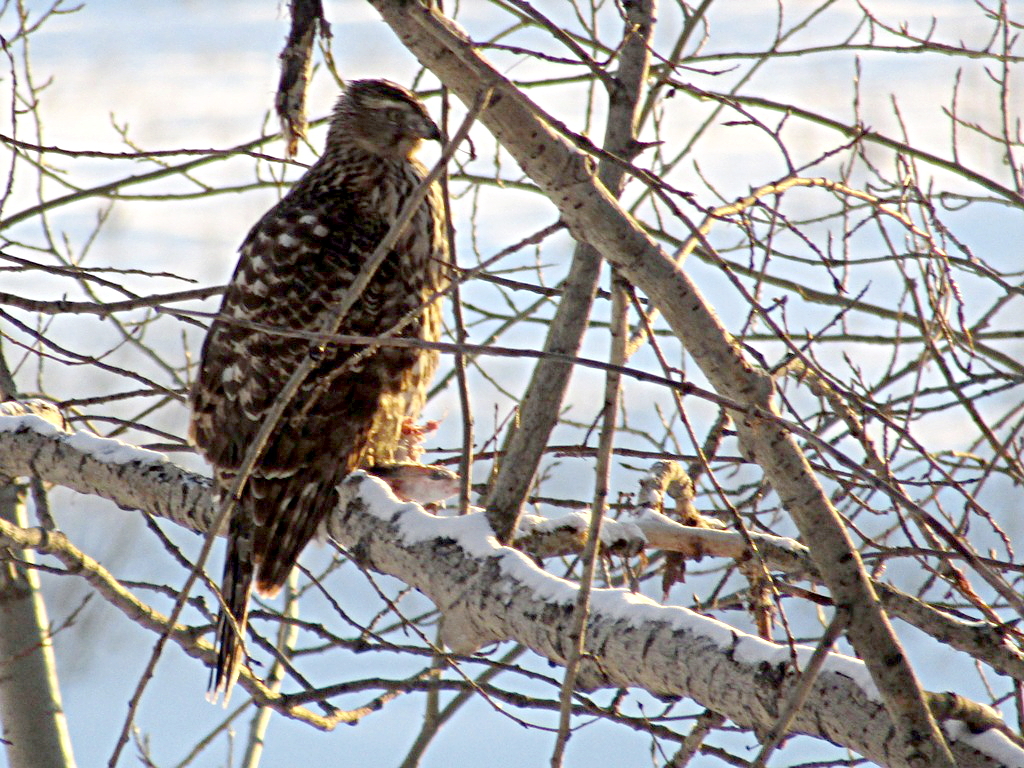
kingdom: Animalia
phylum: Chordata
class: Aves
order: Accipitriformes
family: Accipitridae
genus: Accipiter
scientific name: Accipiter gentilis
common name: Northern goshawk
